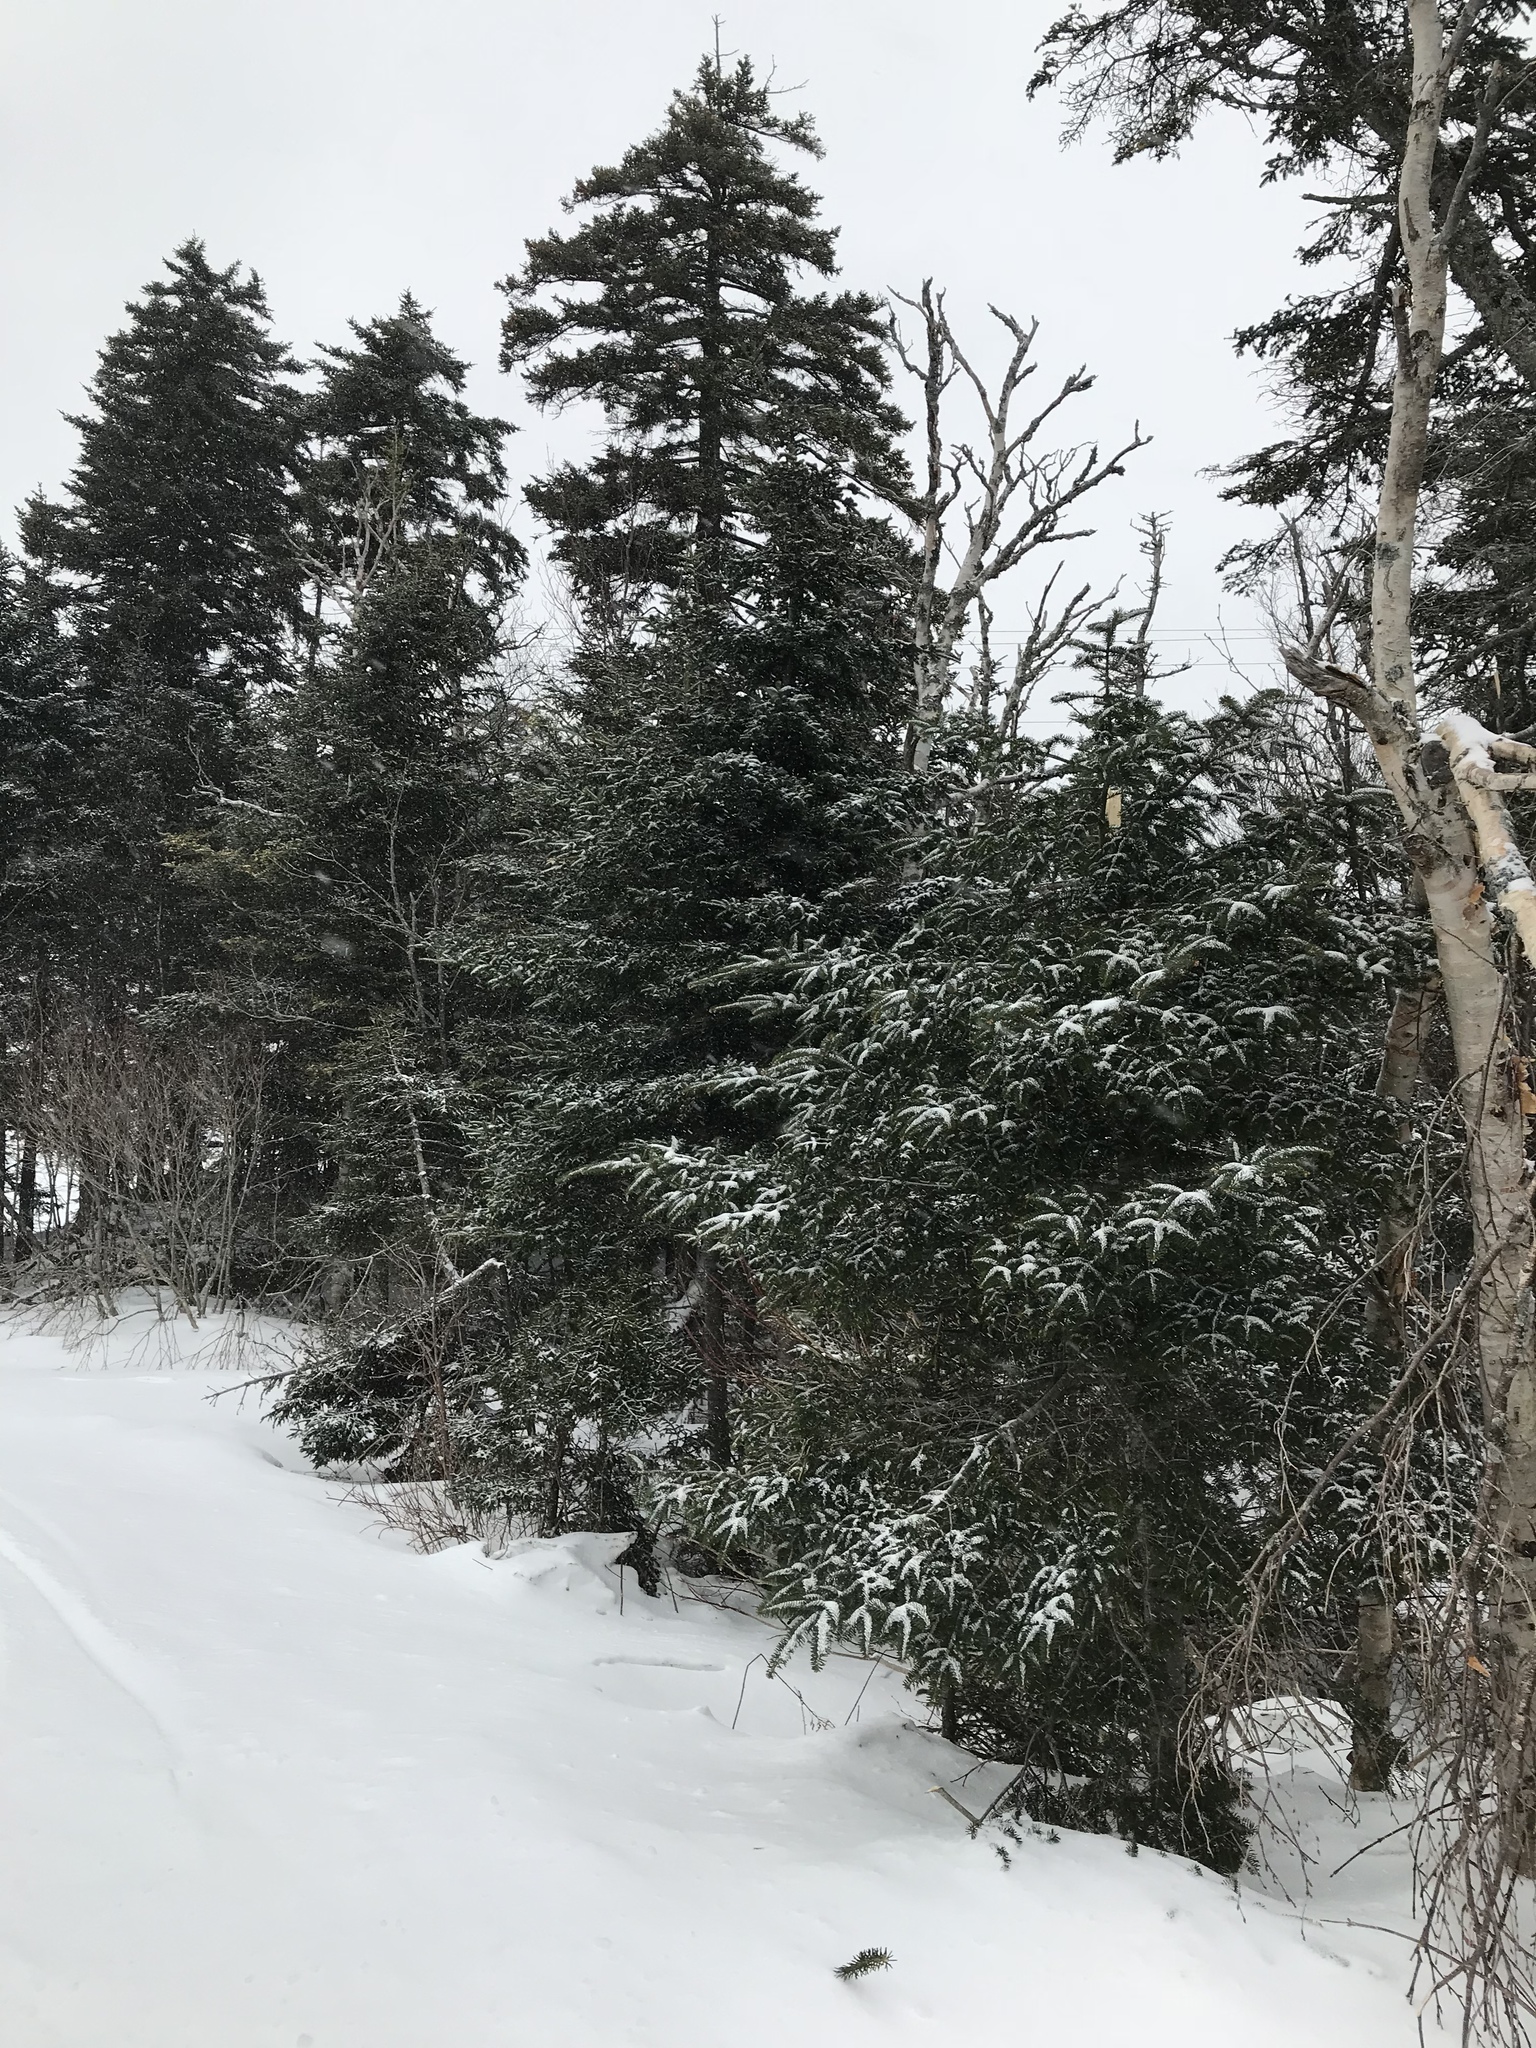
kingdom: Plantae
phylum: Tracheophyta
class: Pinopsida
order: Pinales
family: Pinaceae
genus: Abies
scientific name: Abies balsamea
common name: Balsam fir
